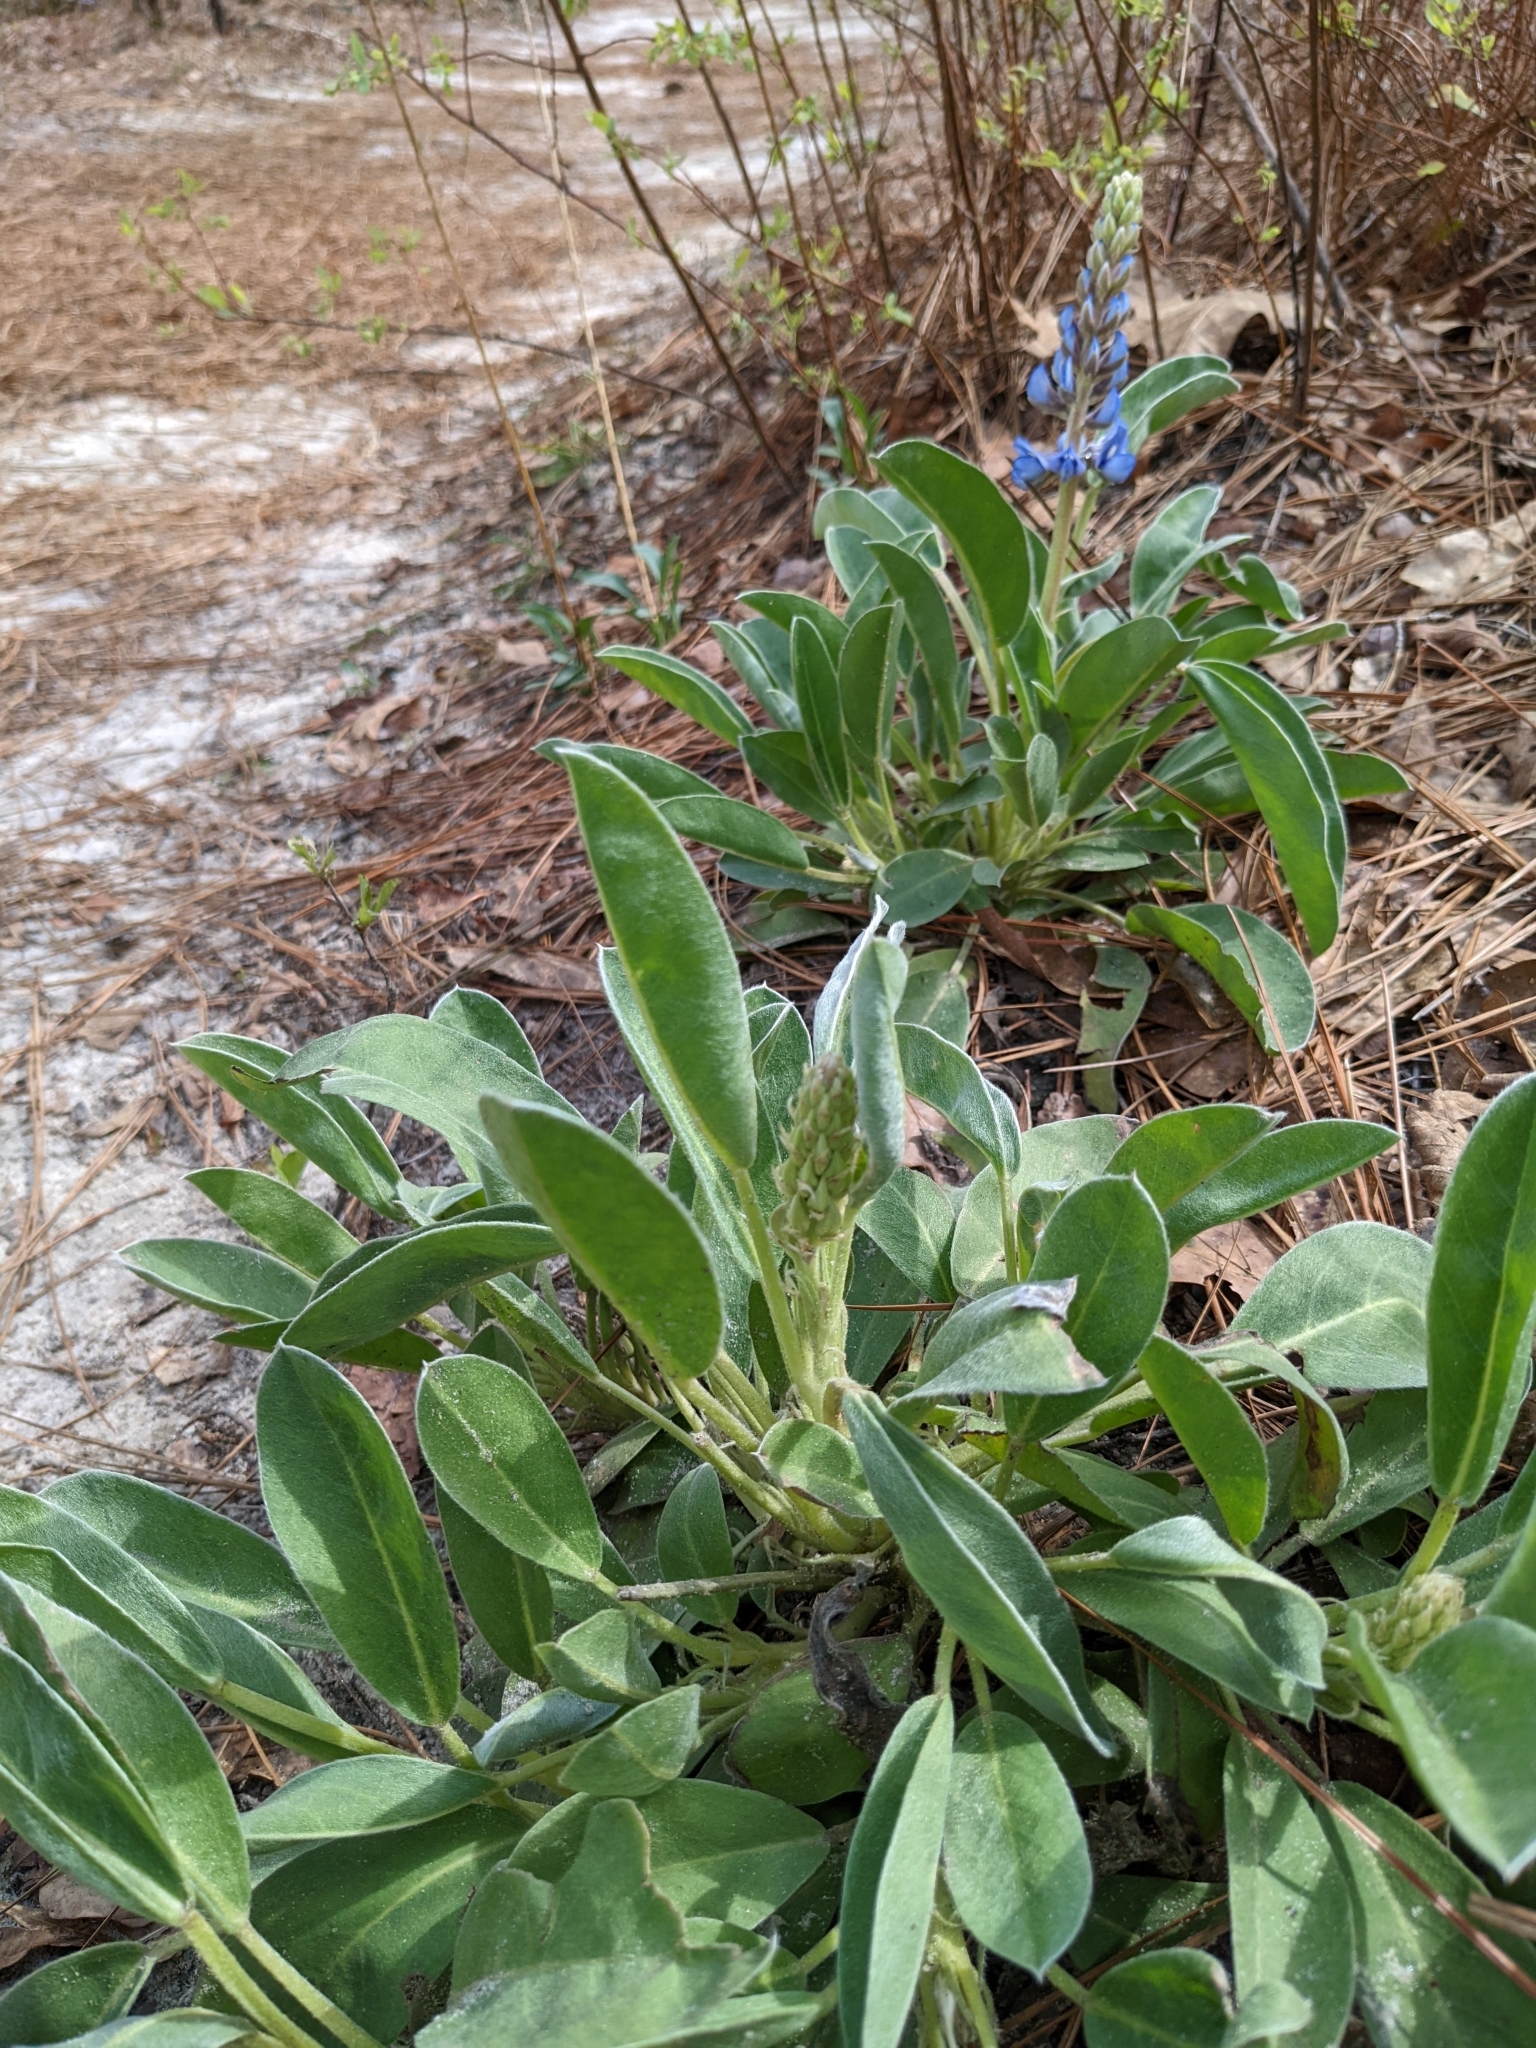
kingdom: Plantae
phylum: Tracheophyta
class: Magnoliopsida
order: Fabales
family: Fabaceae
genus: Lupinus
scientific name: Lupinus diffusus
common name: Oak ridge lupine
